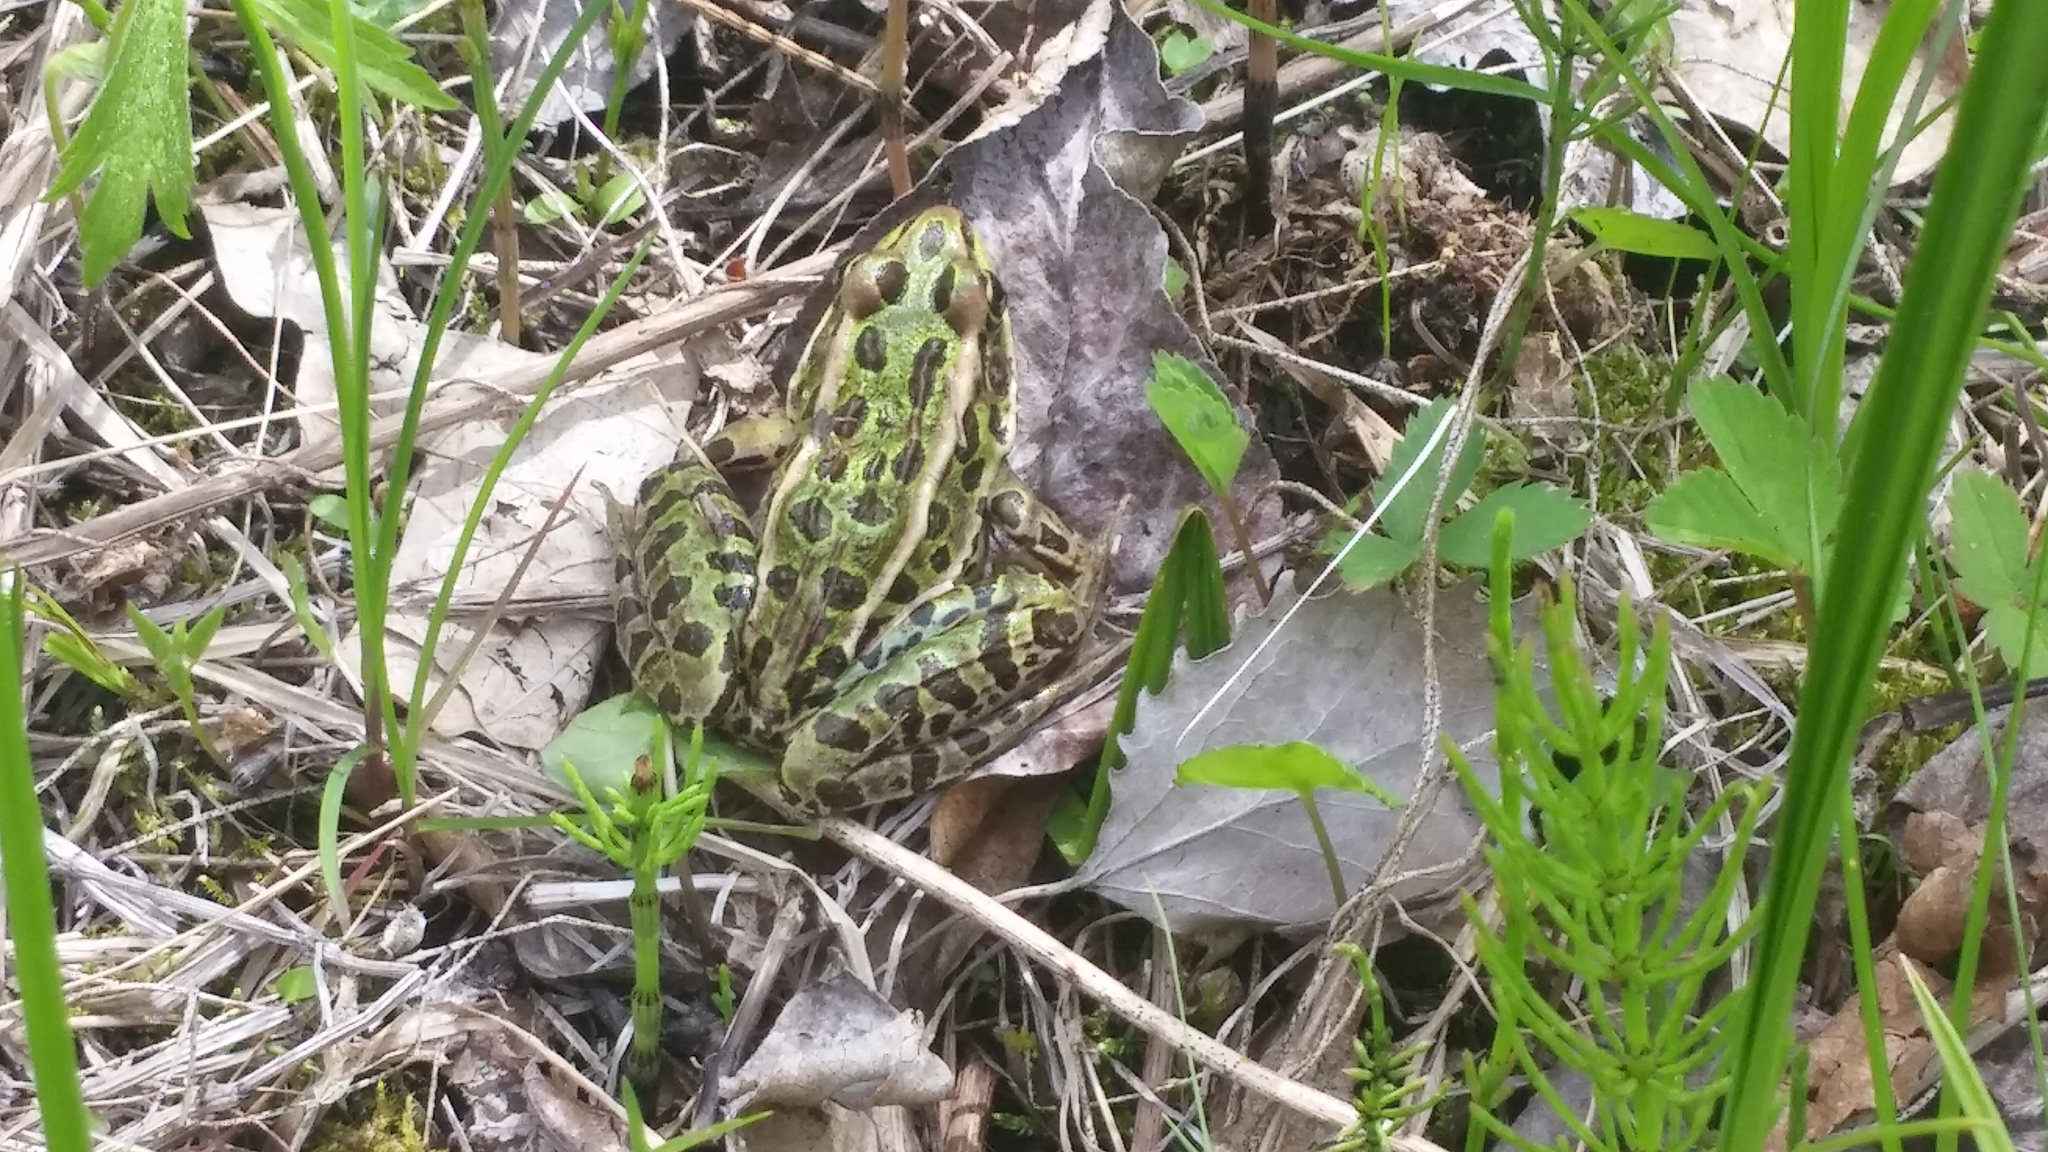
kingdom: Animalia
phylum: Chordata
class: Amphibia
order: Anura
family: Ranidae
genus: Lithobates
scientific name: Lithobates pipiens
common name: Northern leopard frog
